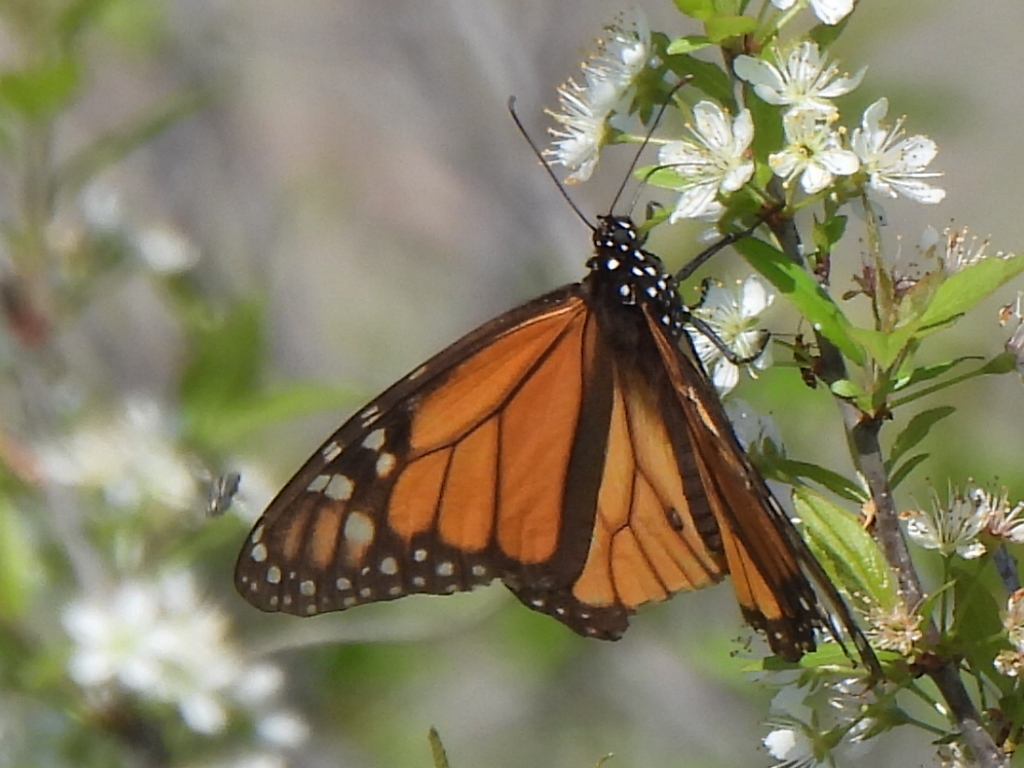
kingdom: Animalia
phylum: Arthropoda
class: Insecta
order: Lepidoptera
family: Nymphalidae
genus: Danaus
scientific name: Danaus plexippus
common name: Monarch
